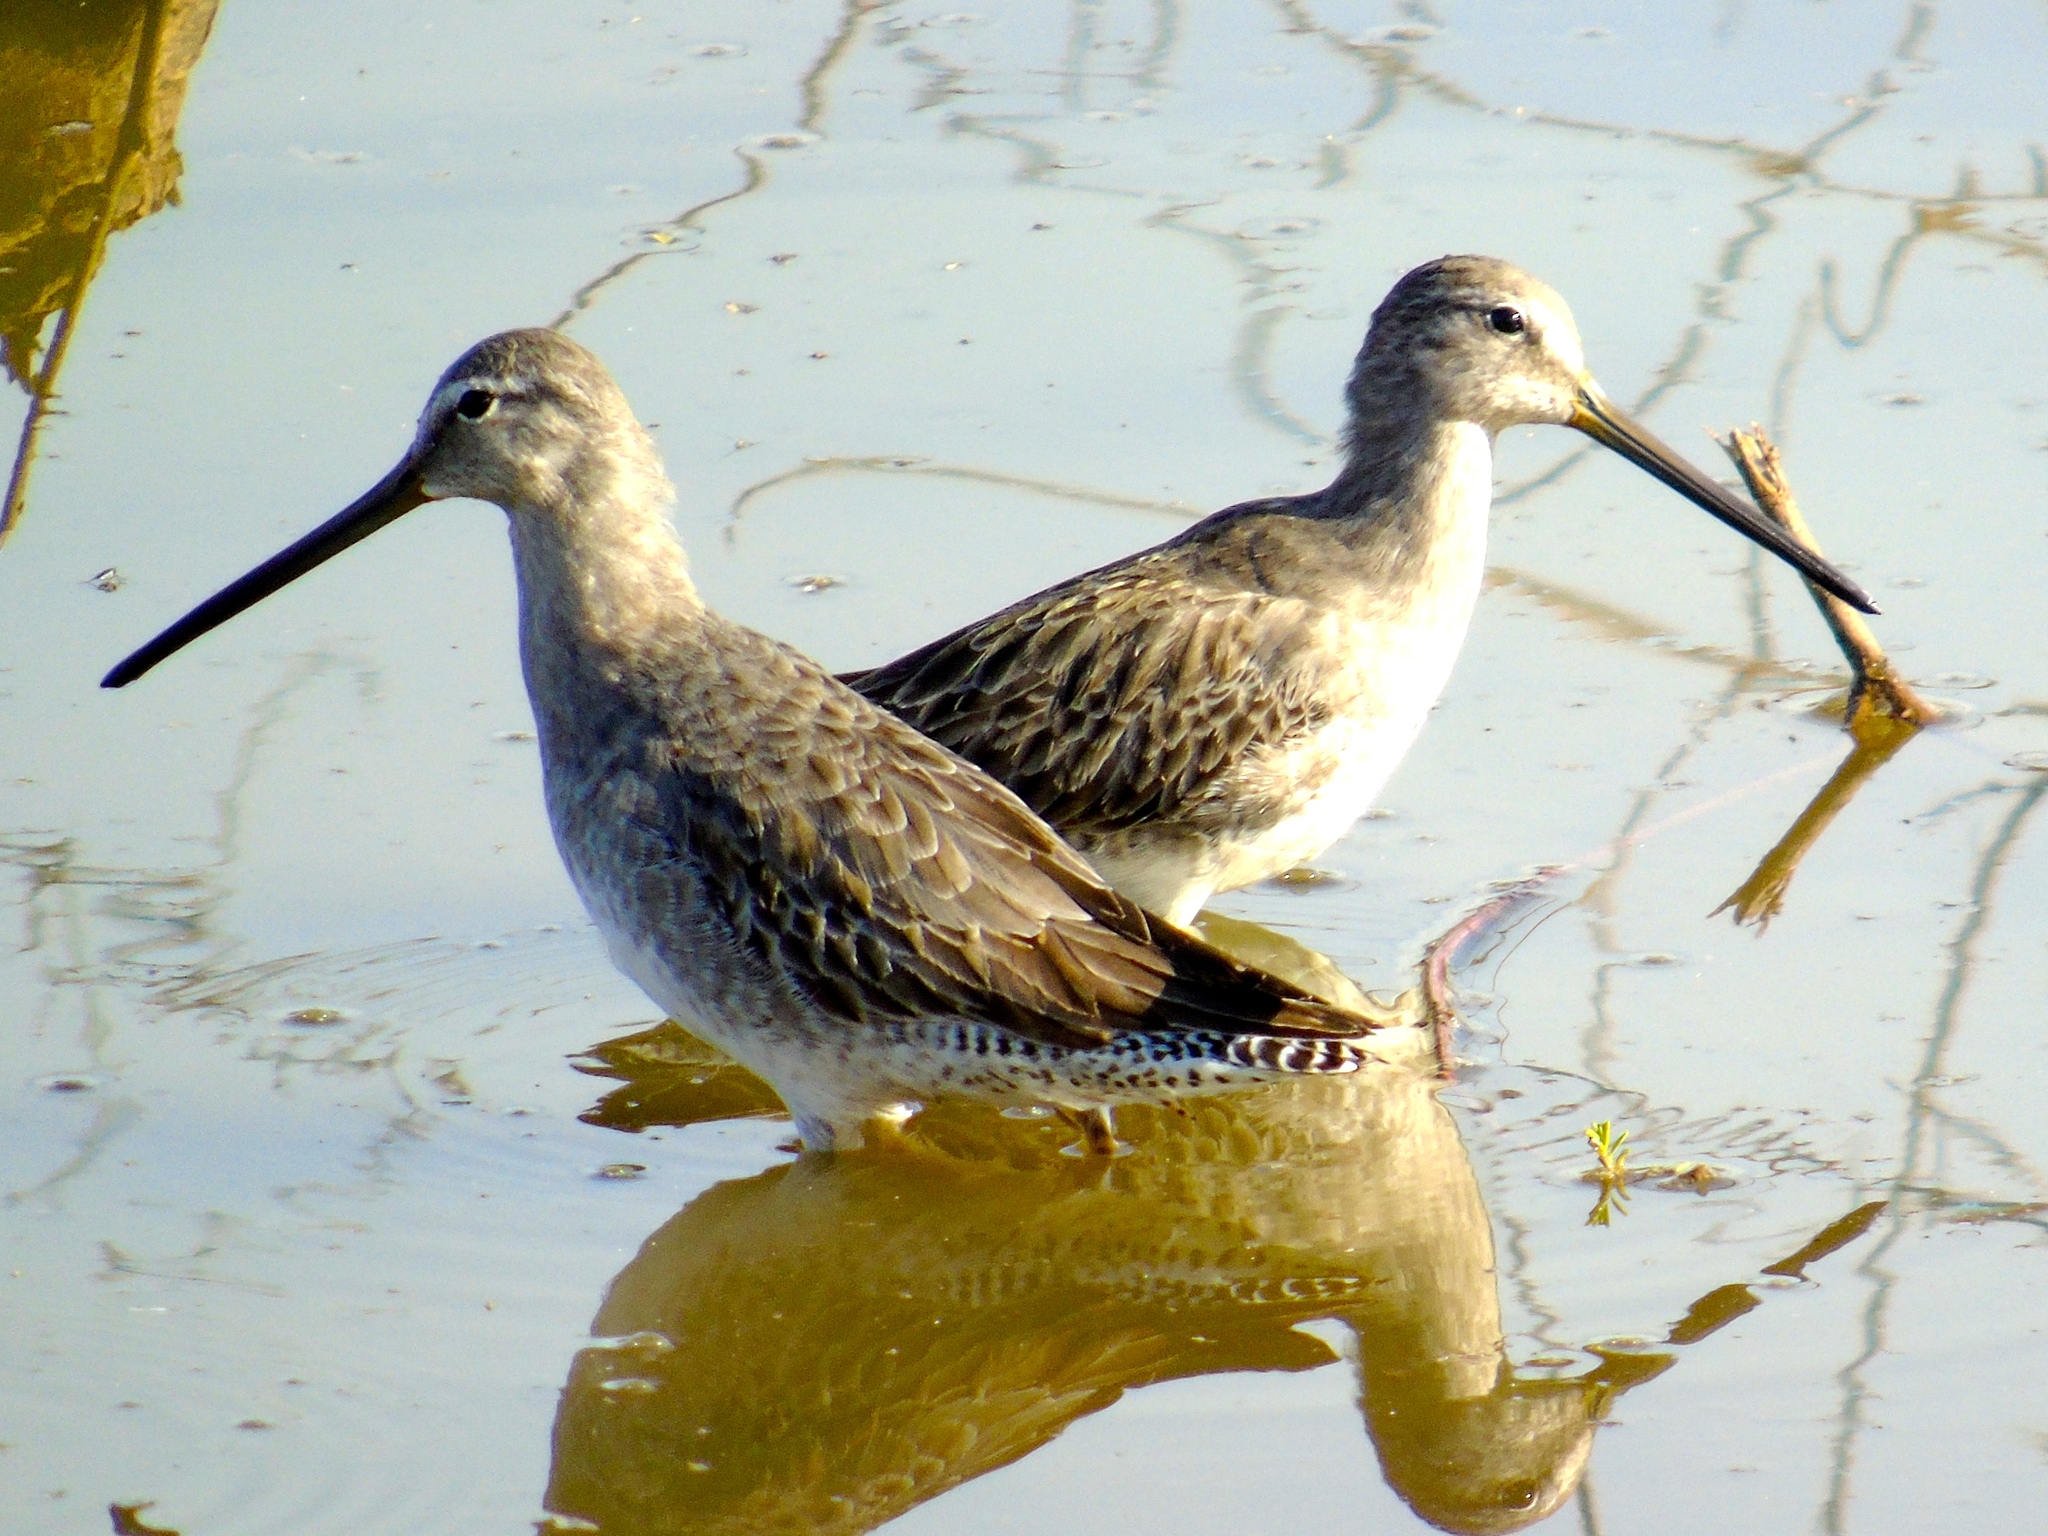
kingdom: Animalia
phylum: Chordata
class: Aves
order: Charadriiformes
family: Scolopacidae
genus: Limnodromus
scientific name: Limnodromus
